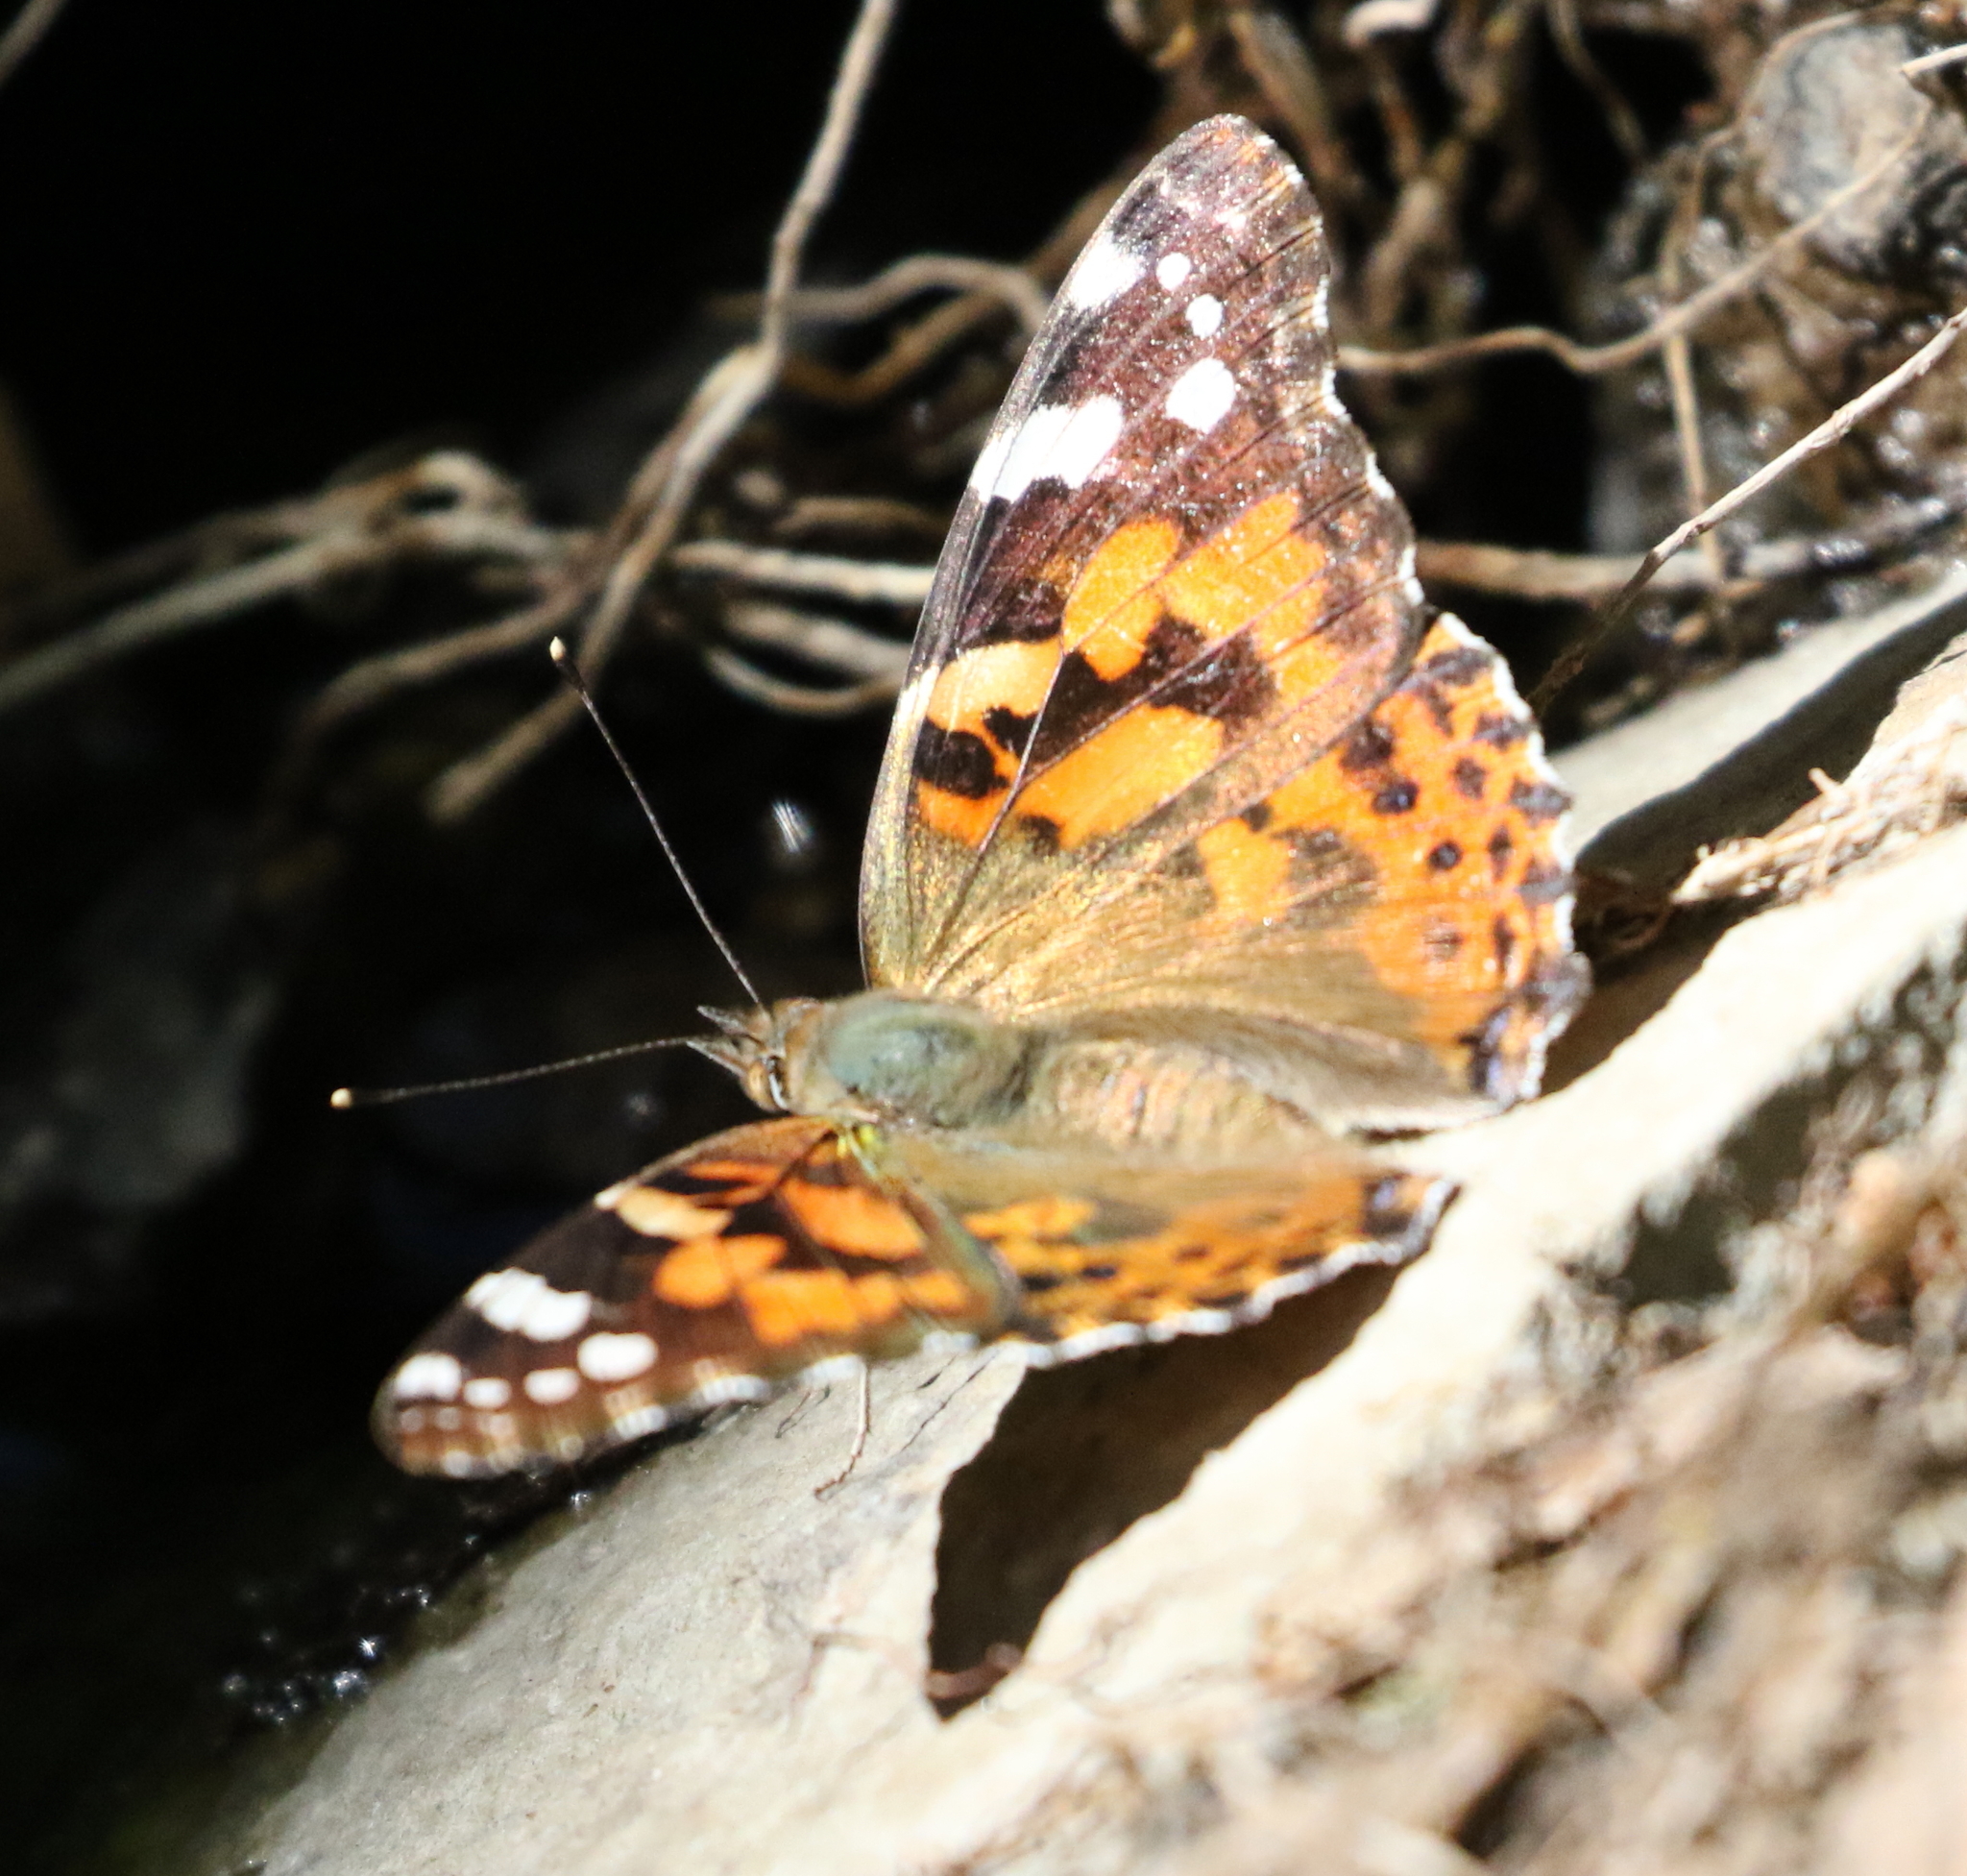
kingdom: Animalia
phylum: Arthropoda
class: Insecta
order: Lepidoptera
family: Nymphalidae
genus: Vanessa
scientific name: Vanessa cardui
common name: Painted lady
